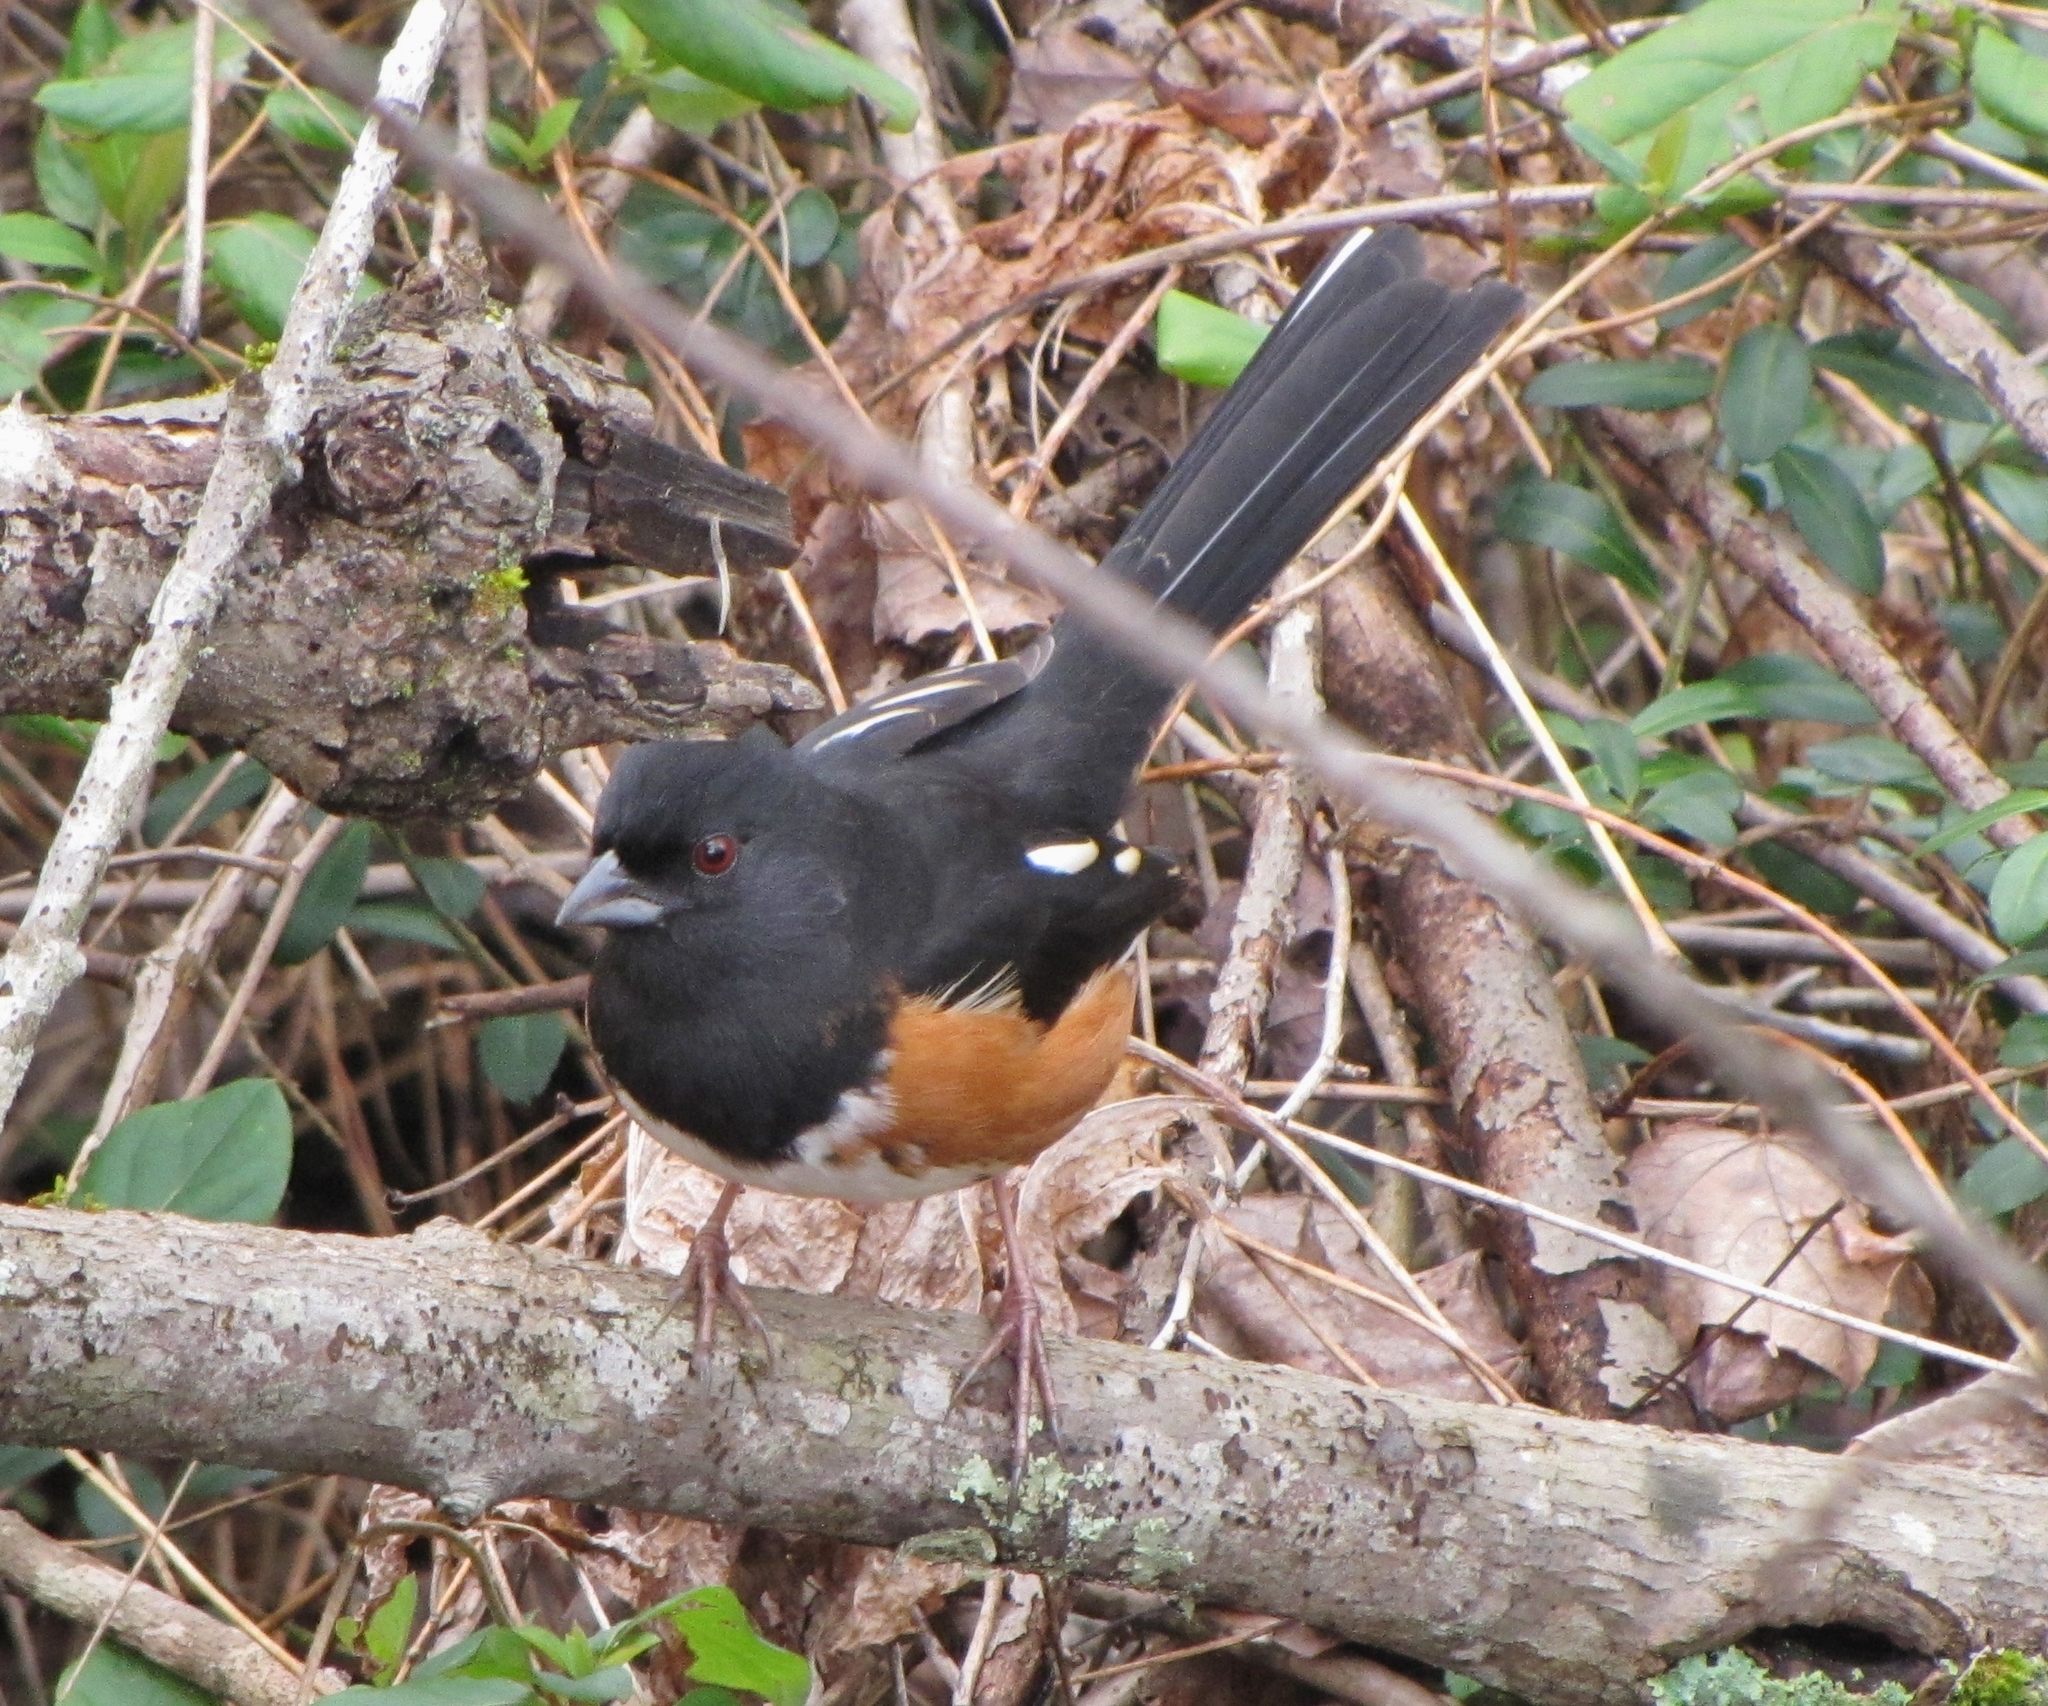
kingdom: Animalia
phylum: Chordata
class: Aves
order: Passeriformes
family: Passerellidae
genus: Pipilo
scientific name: Pipilo erythrophthalmus
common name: Eastern towhee
